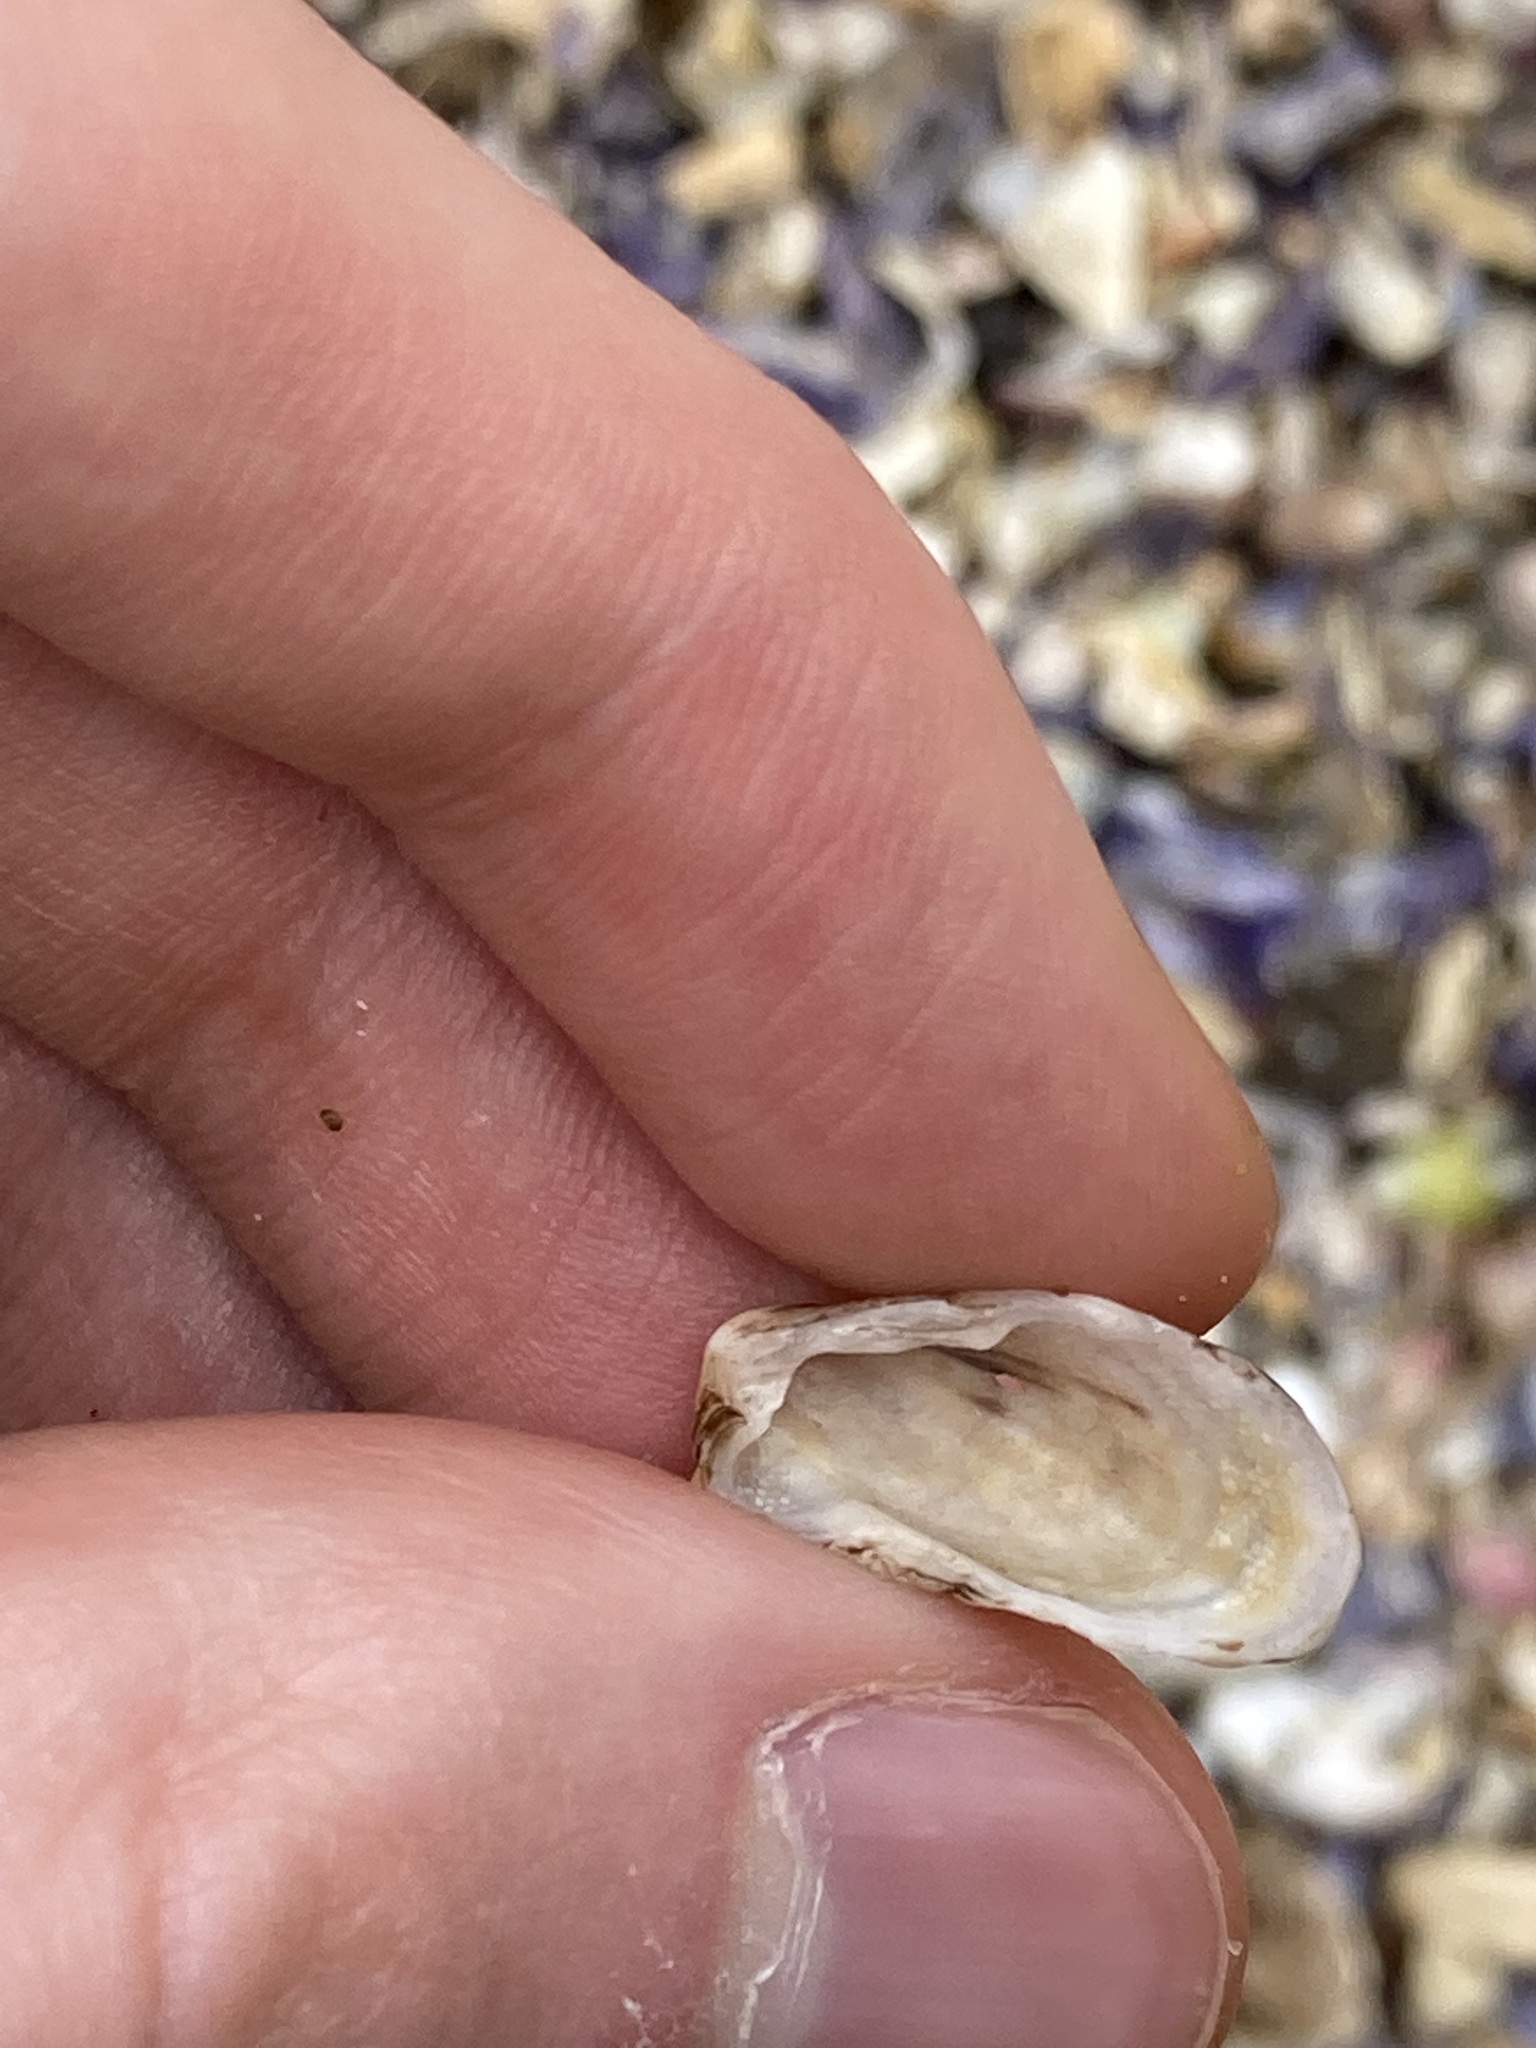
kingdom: Animalia
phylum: Mollusca
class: Bivalvia
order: Carditida
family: Carditidae
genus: Cardita
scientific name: Cardita aviculina
